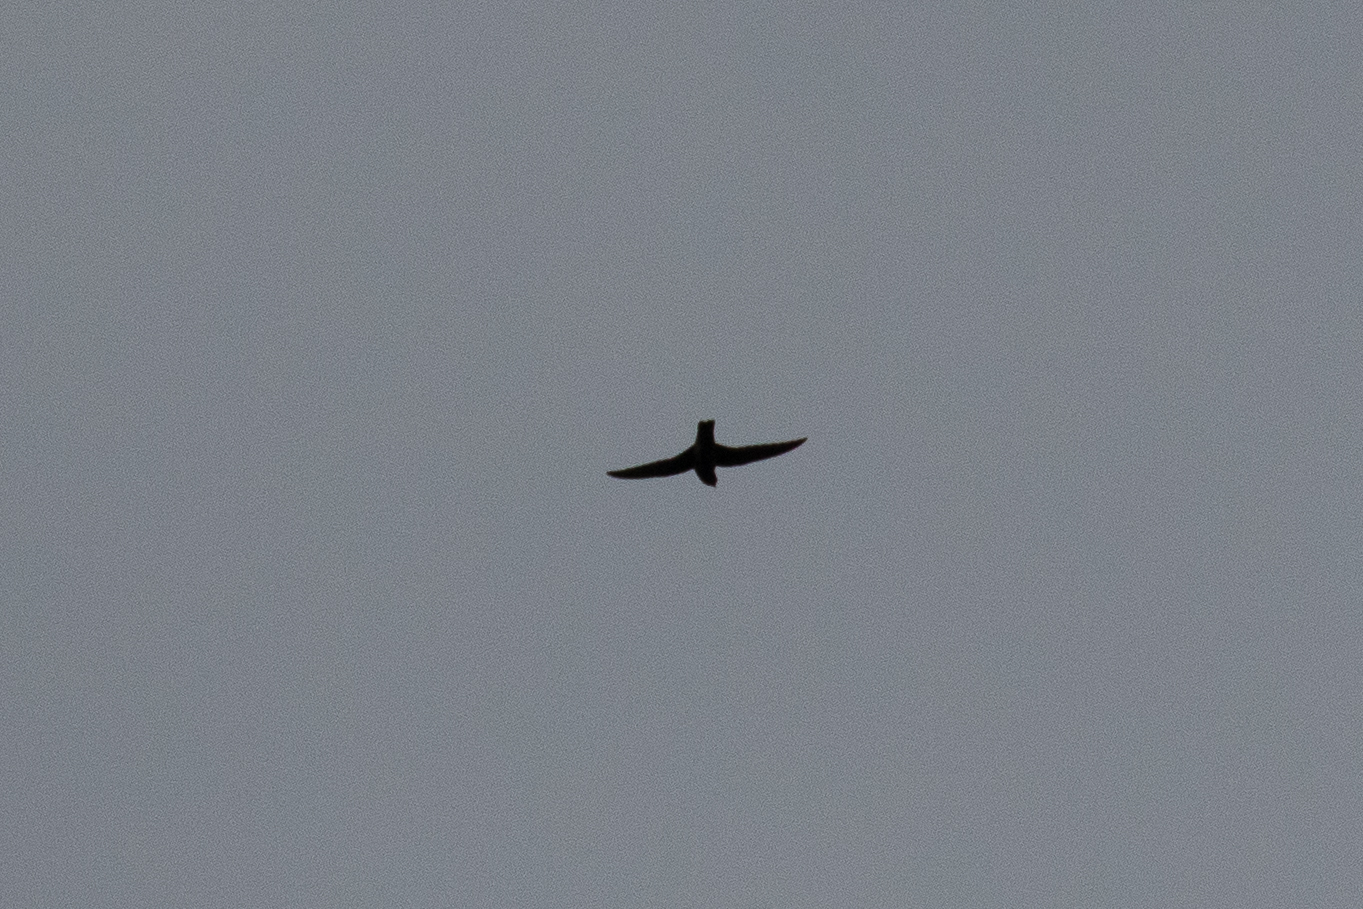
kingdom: Animalia
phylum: Chordata
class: Aves
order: Apodiformes
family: Apodidae
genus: Cypseloides
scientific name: Cypseloides niger
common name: Black swift
